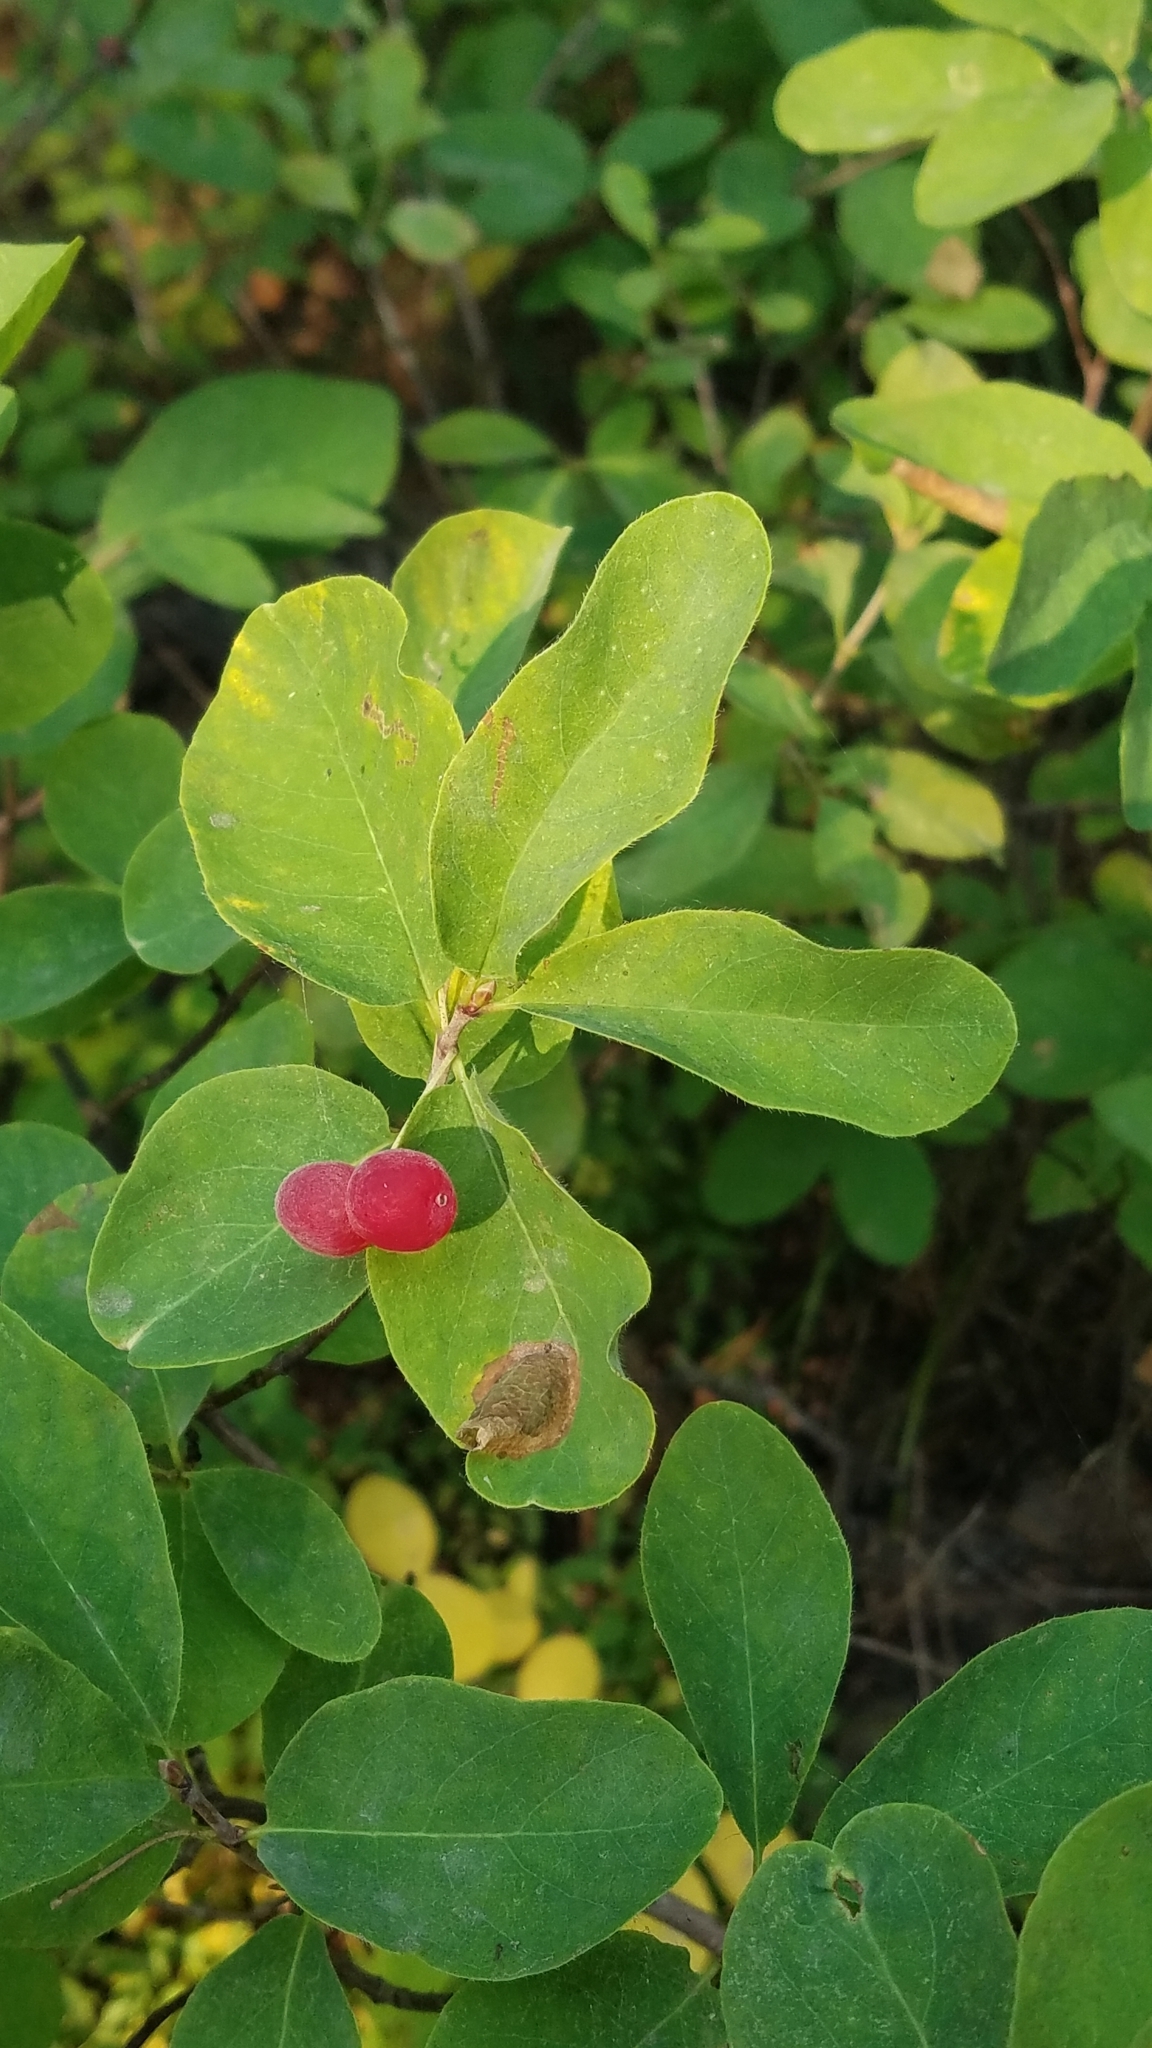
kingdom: Plantae
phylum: Tracheophyta
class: Magnoliopsida
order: Dipsacales
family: Caprifoliaceae
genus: Lonicera
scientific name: Lonicera utahensis
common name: Utah honeysuckle
